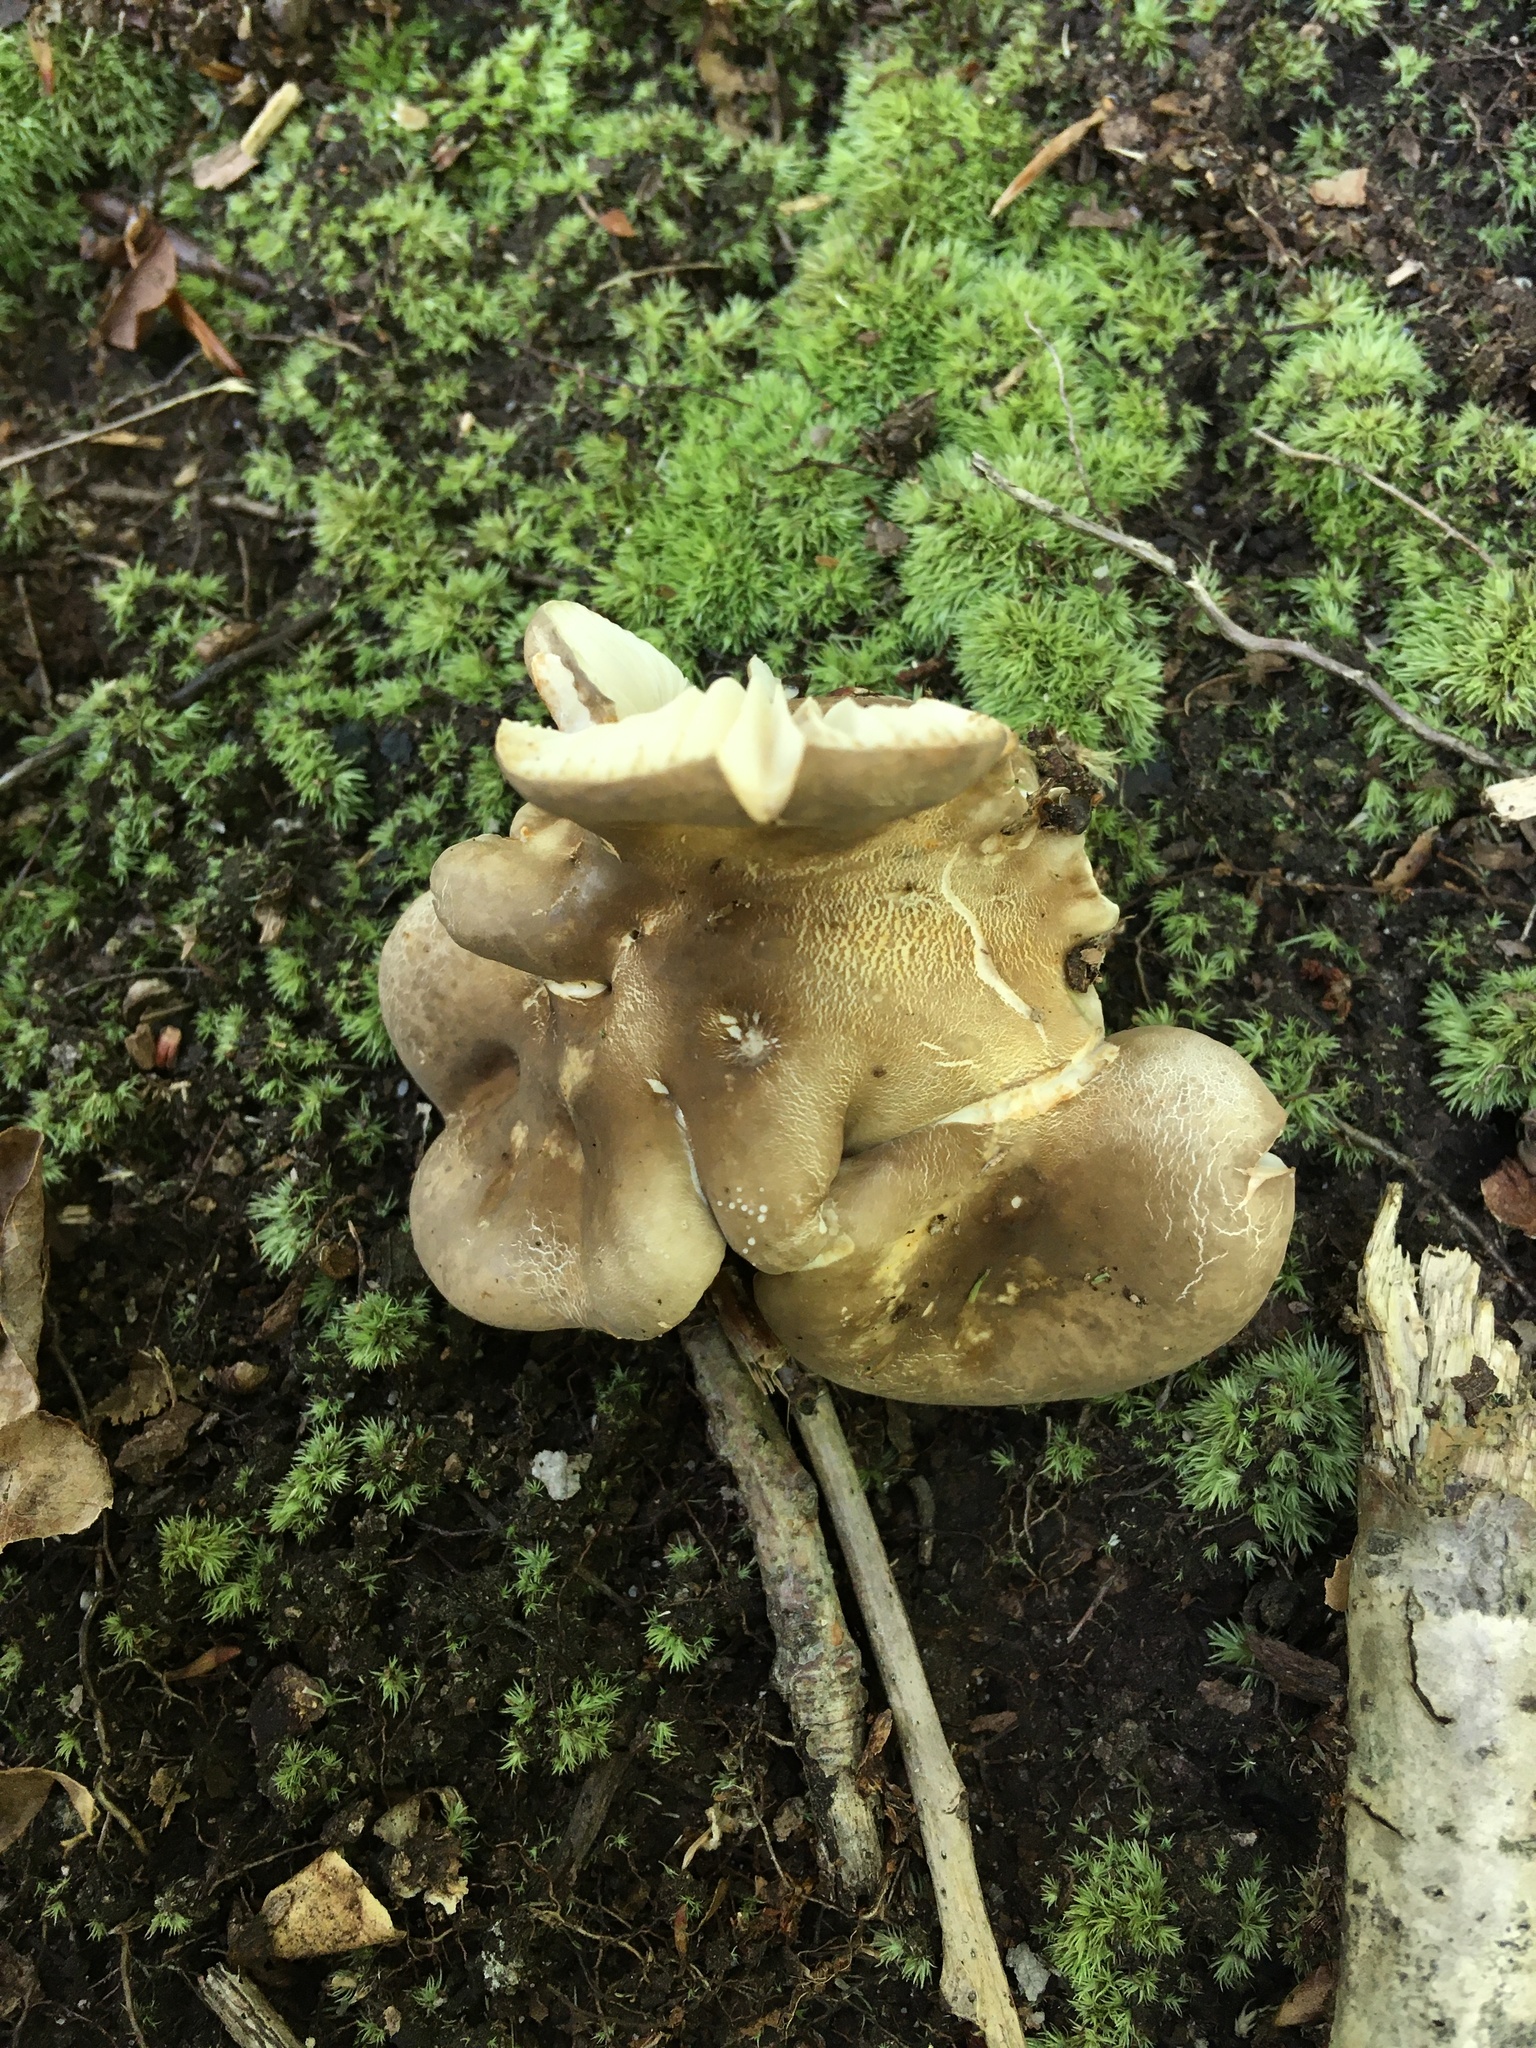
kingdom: Fungi
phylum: Basidiomycota
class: Agaricomycetes
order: Russulales
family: Russulaceae
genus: Lactarius
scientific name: Lactarius gerardii
